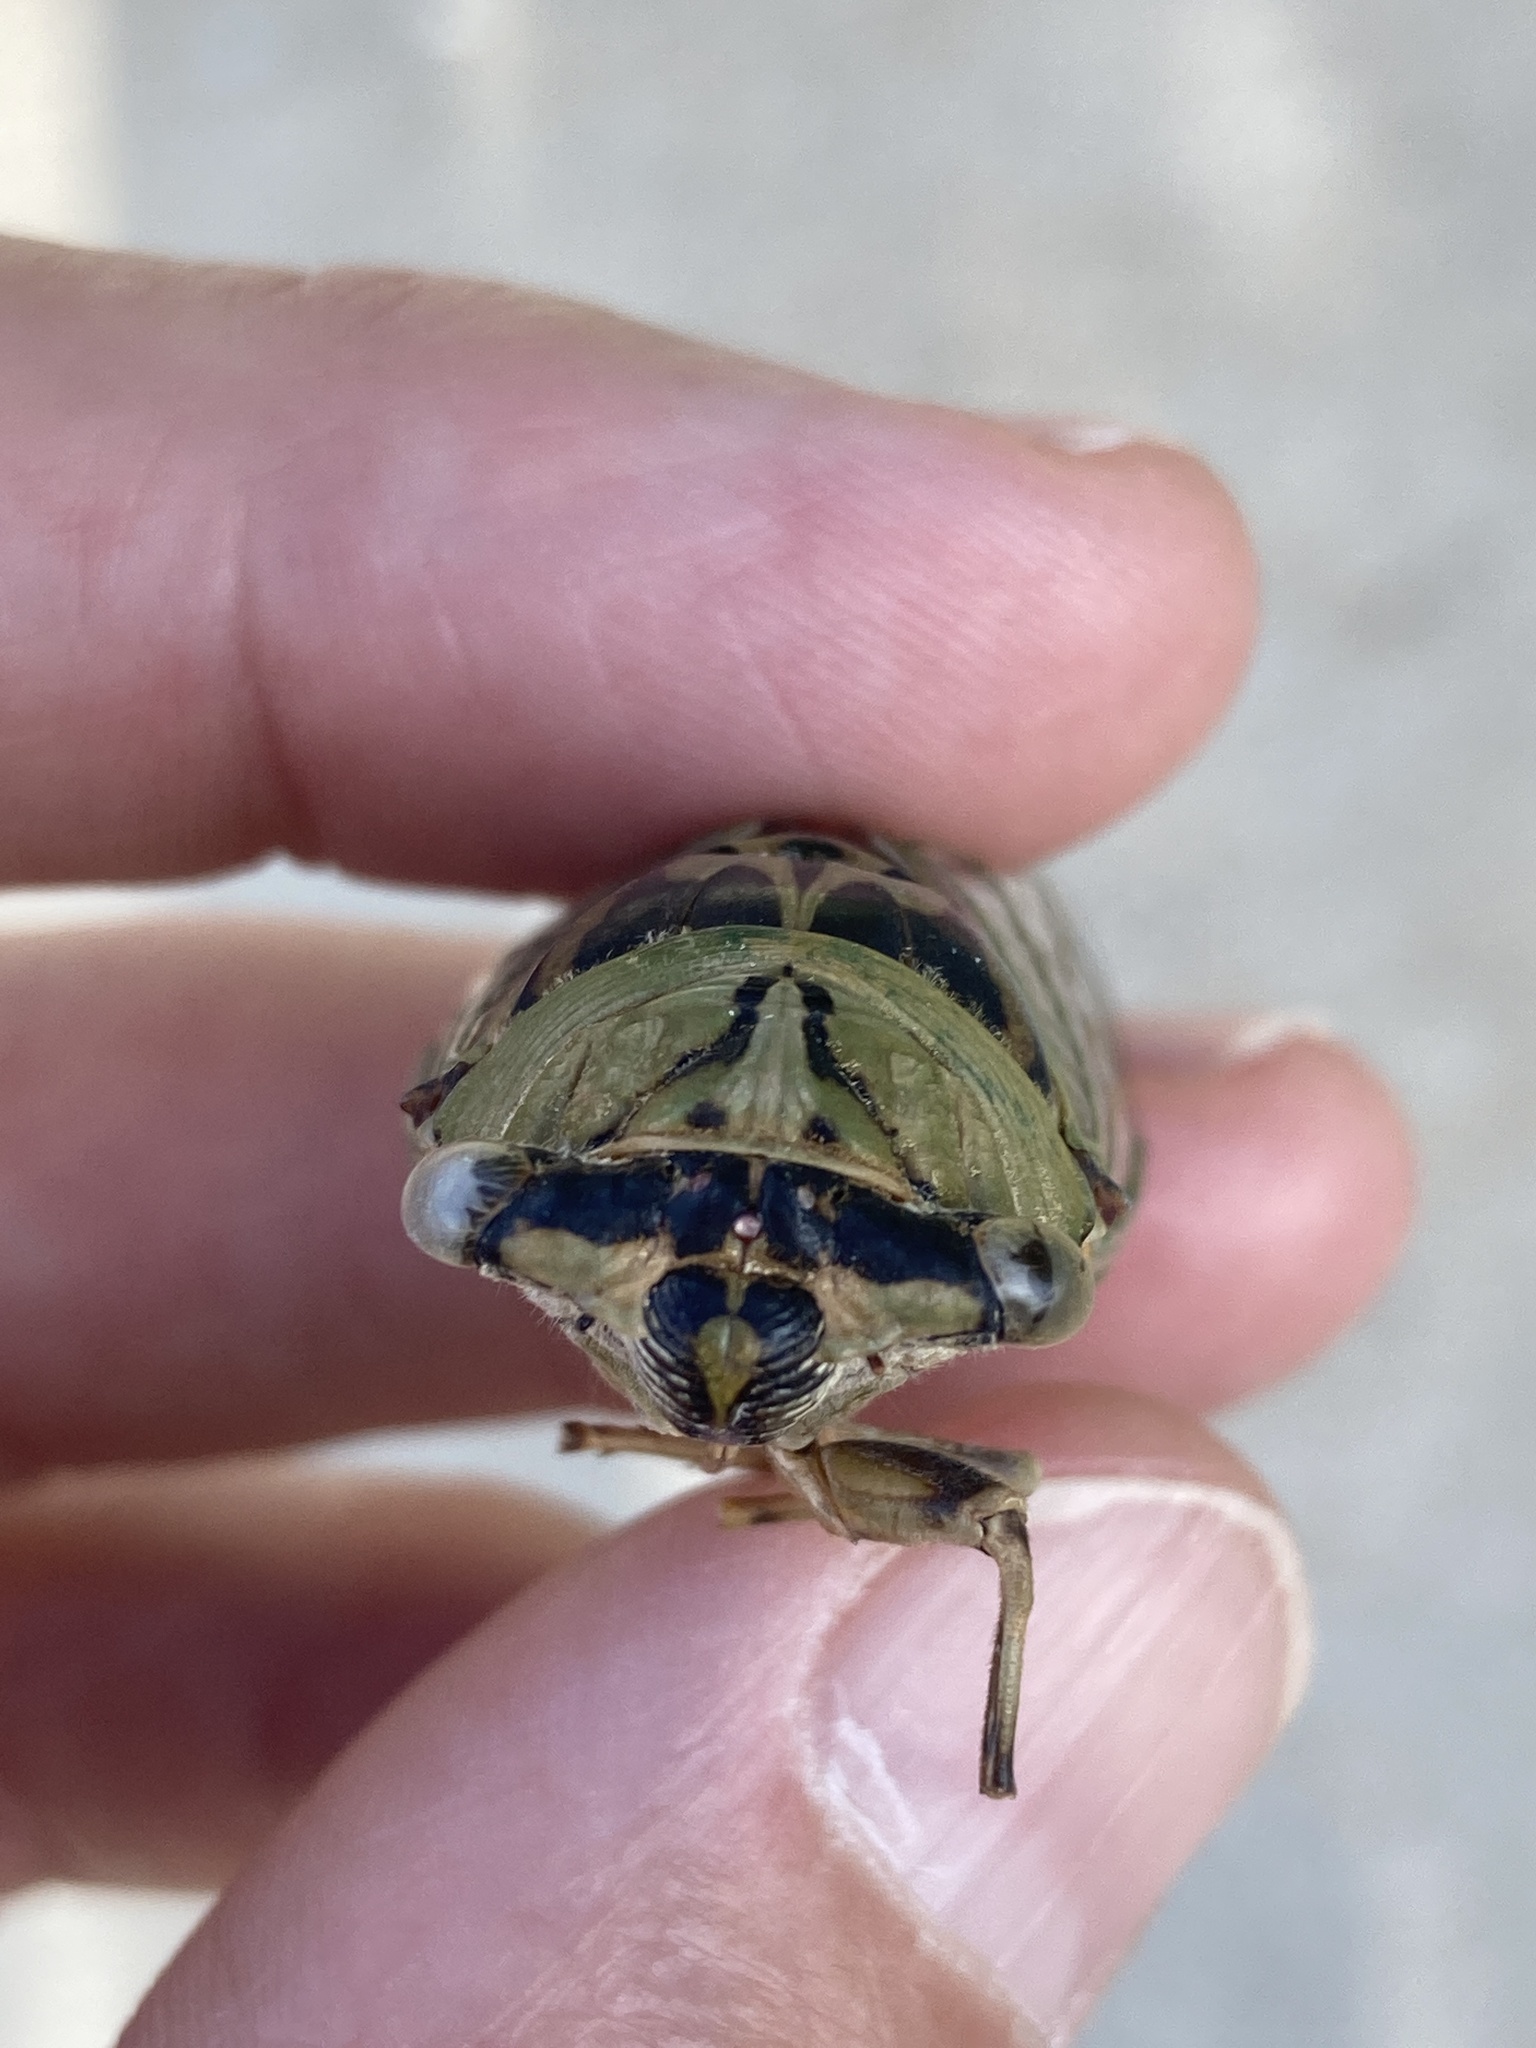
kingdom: Animalia
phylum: Arthropoda
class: Insecta
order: Hemiptera
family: Cicadidae
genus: Megatibicen
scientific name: Megatibicen resh
